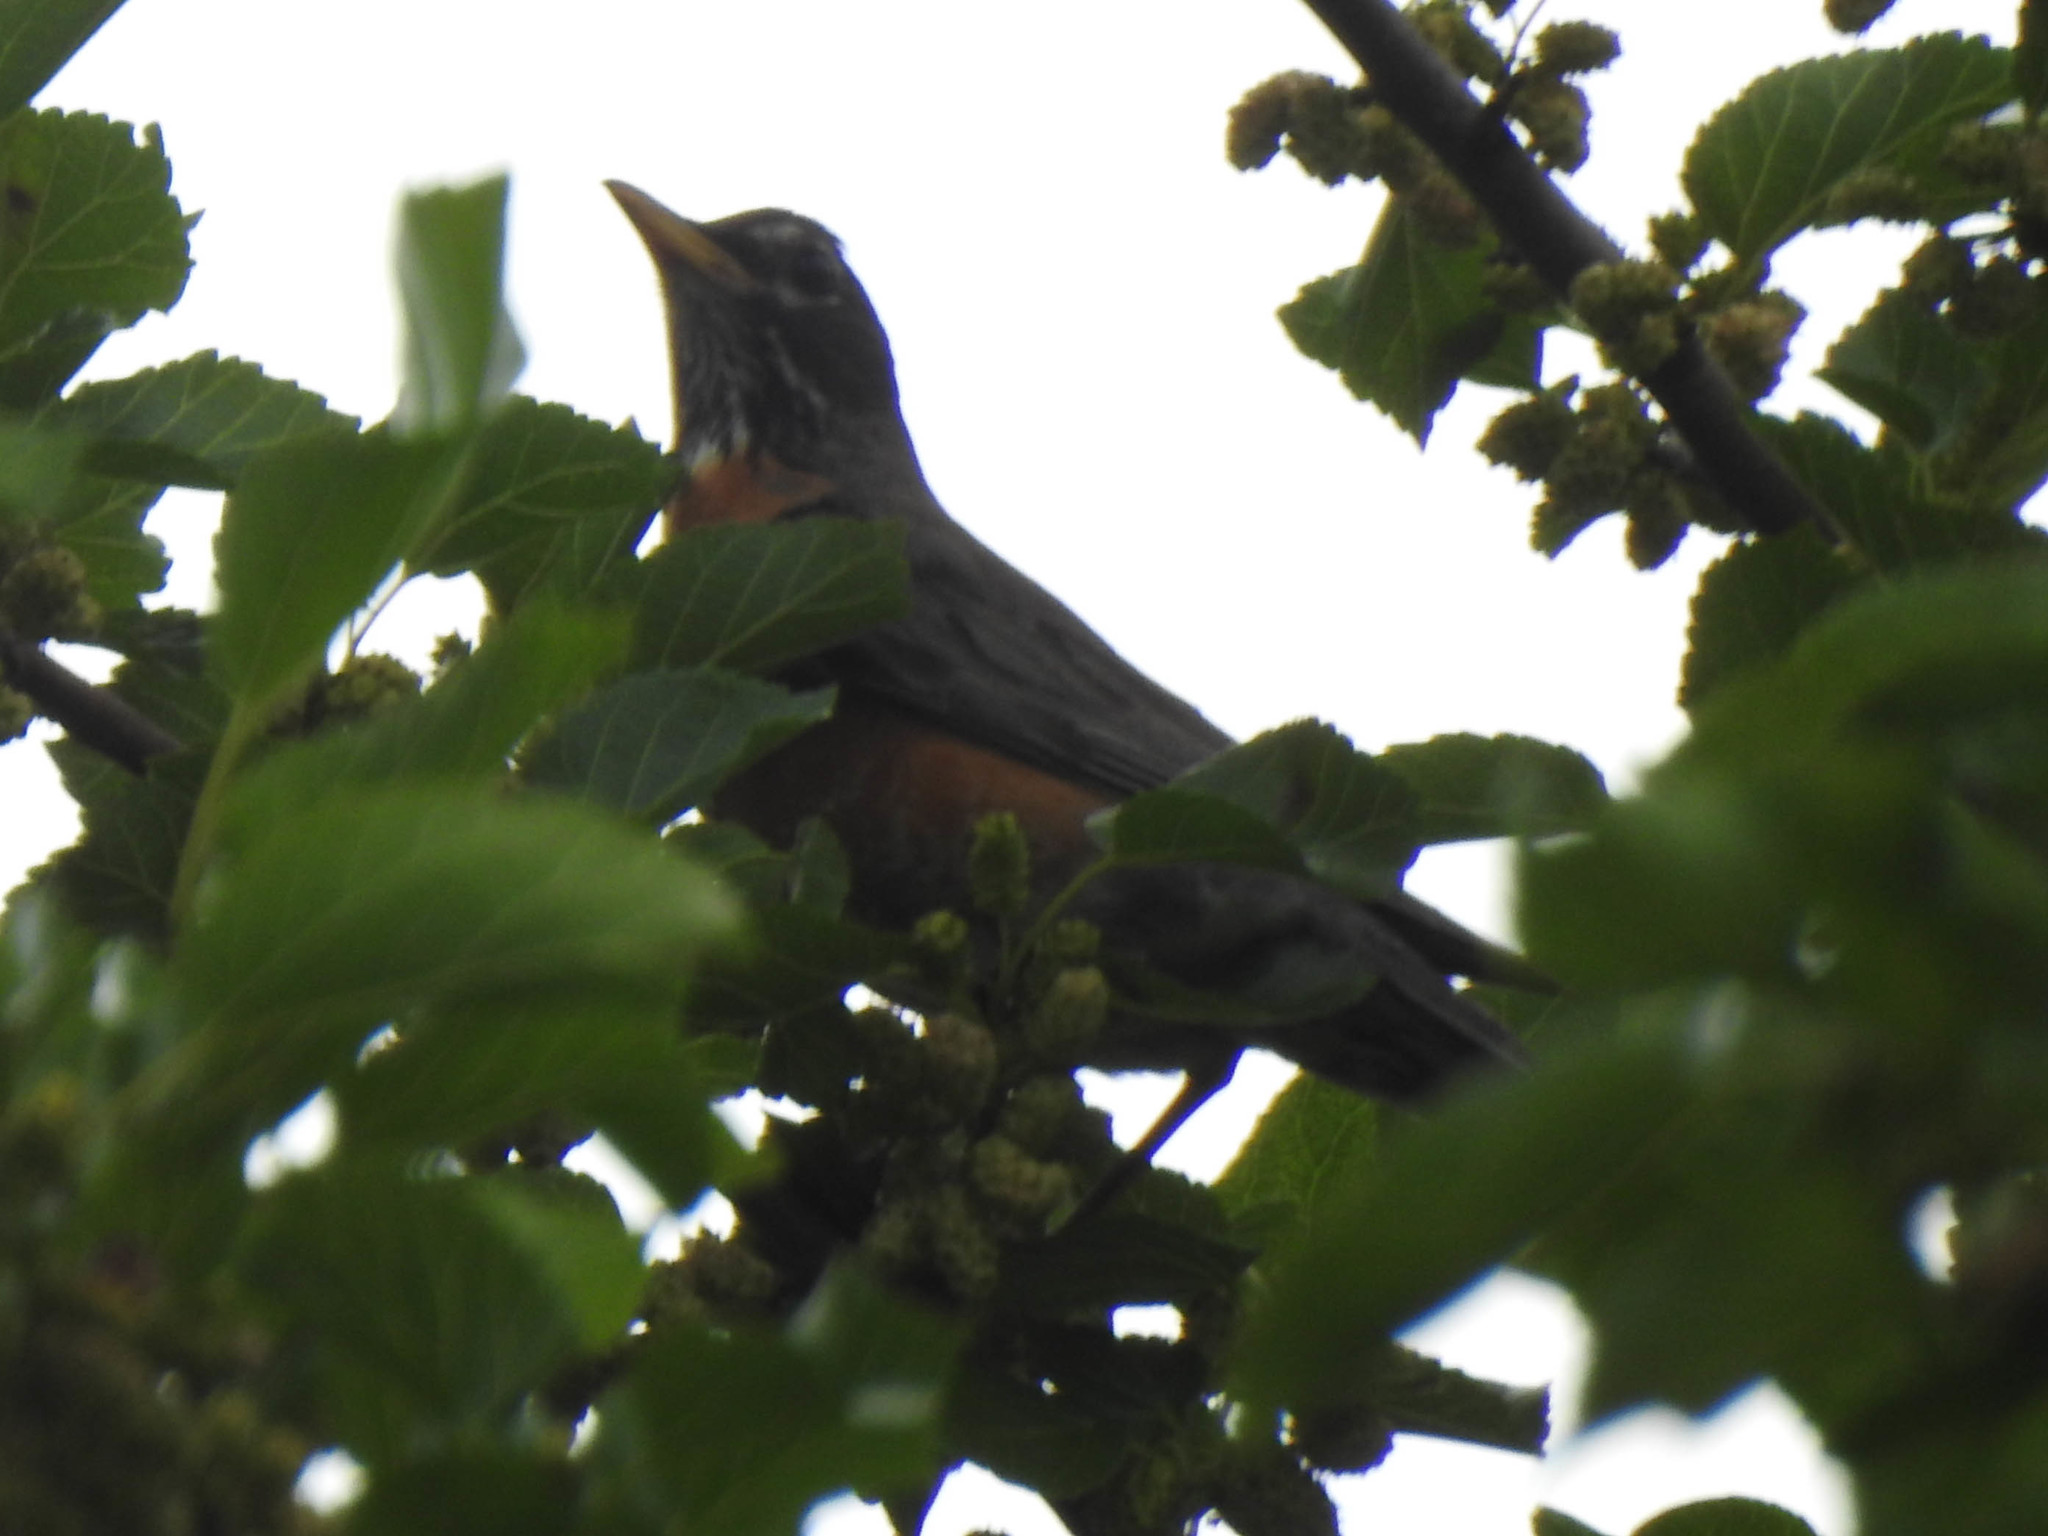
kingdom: Animalia
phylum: Chordata
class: Aves
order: Passeriformes
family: Turdidae
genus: Turdus
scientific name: Turdus migratorius
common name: American robin
